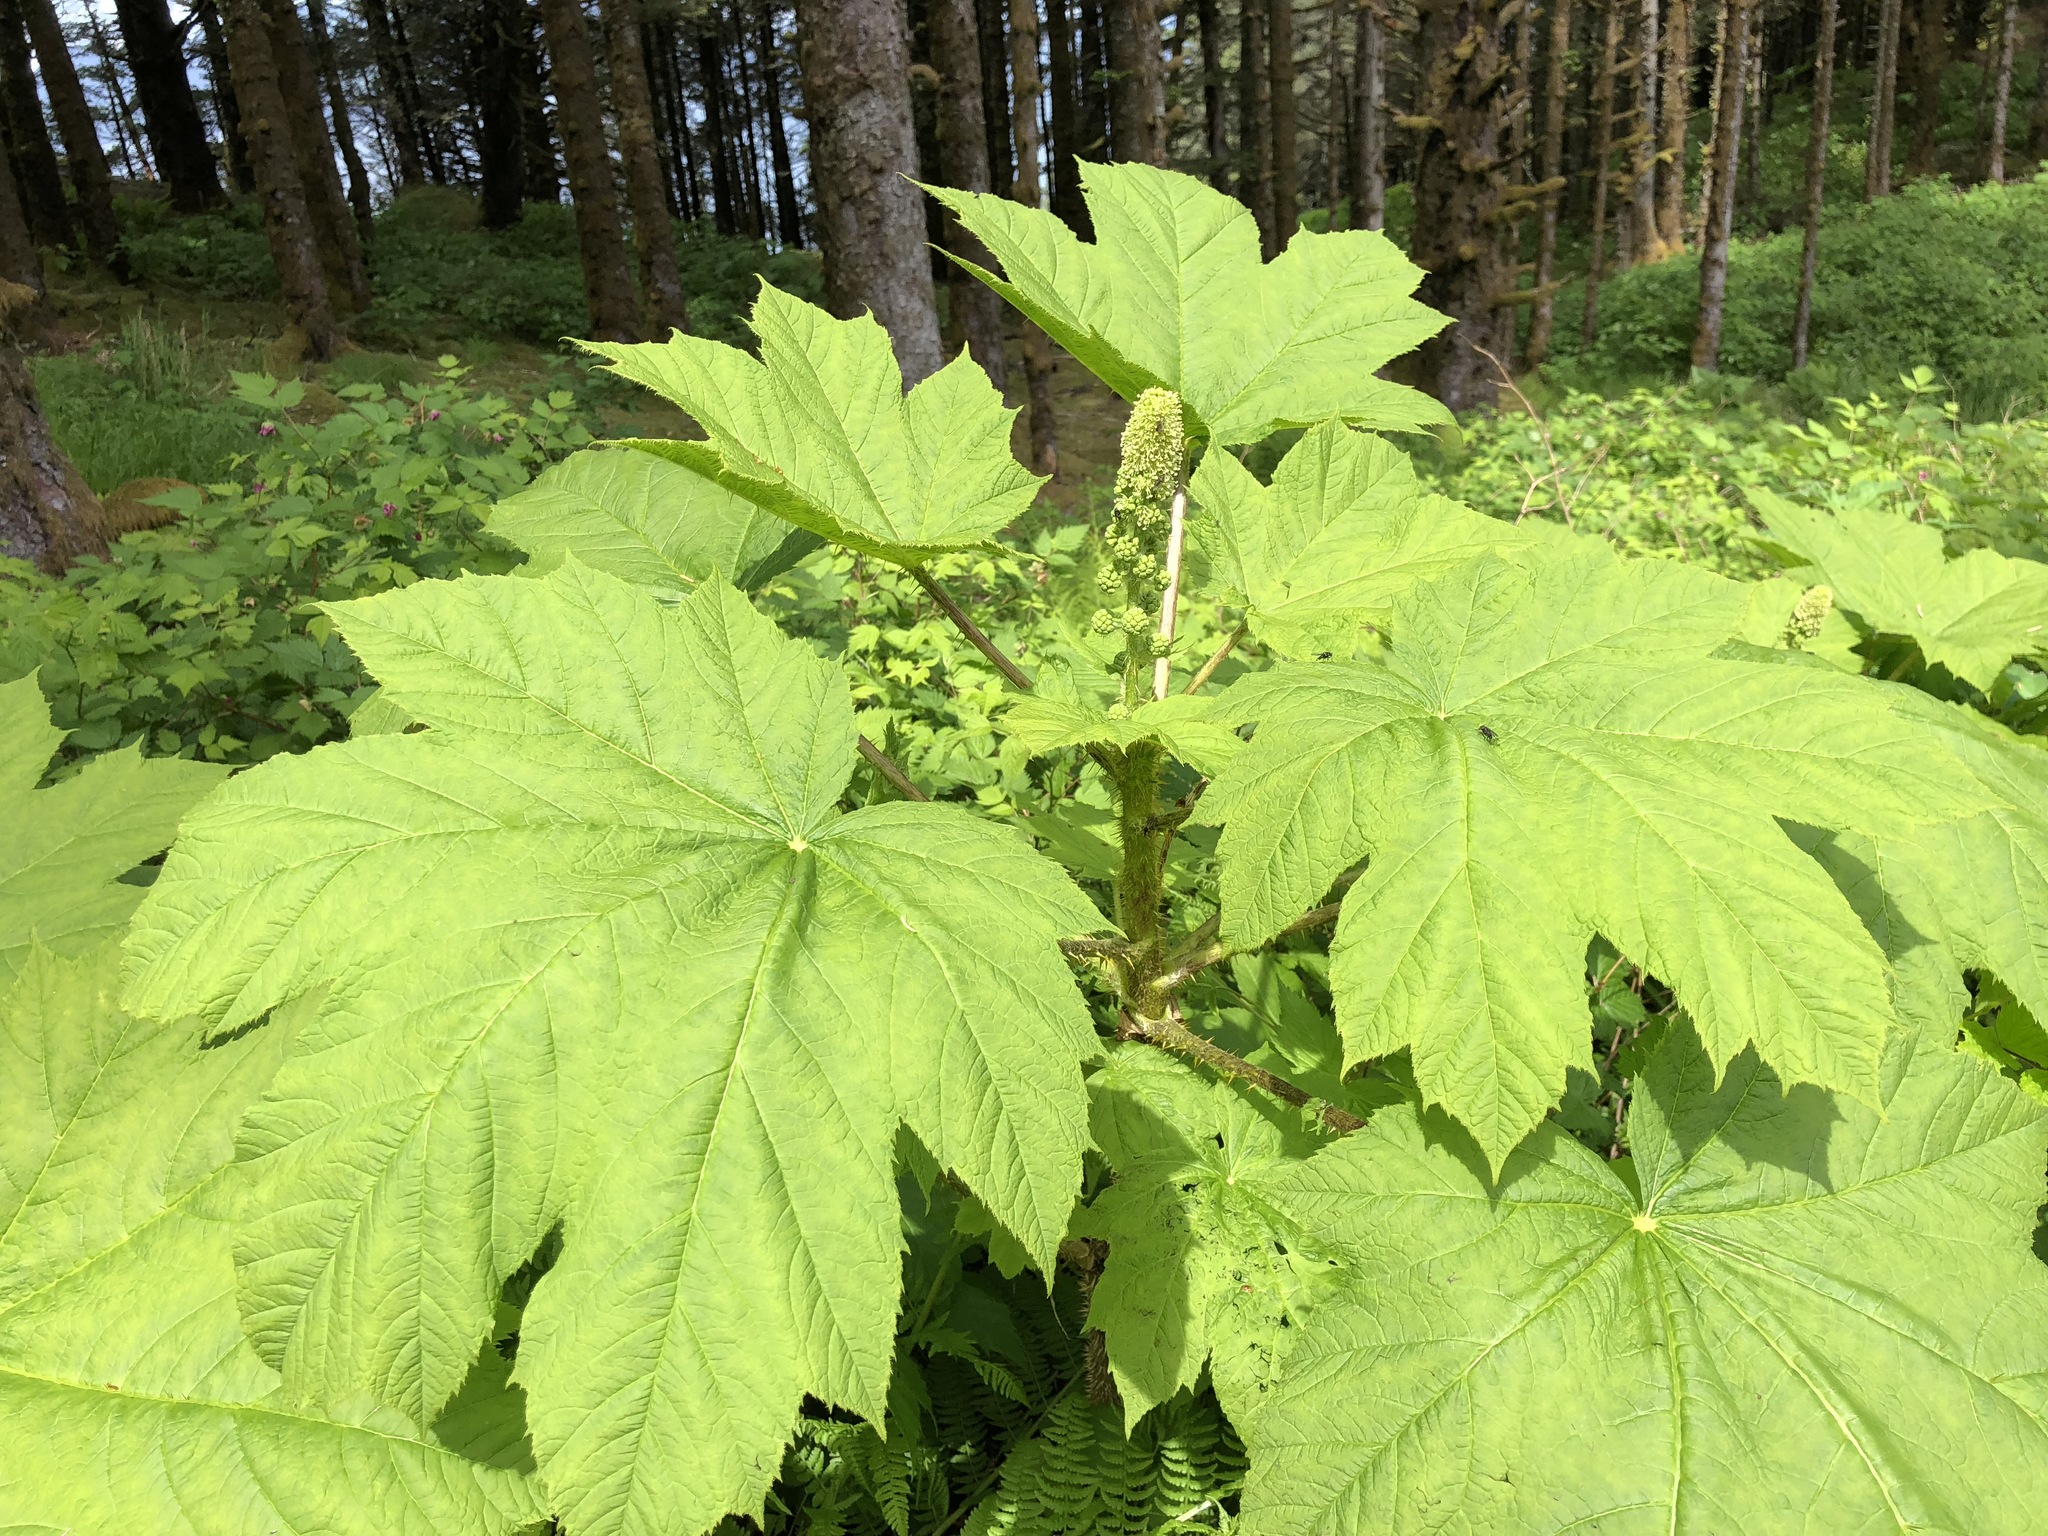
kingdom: Plantae
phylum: Tracheophyta
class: Magnoliopsida
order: Apiales
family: Araliaceae
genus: Oplopanax
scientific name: Oplopanax horridus
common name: Devil's walking-stick
